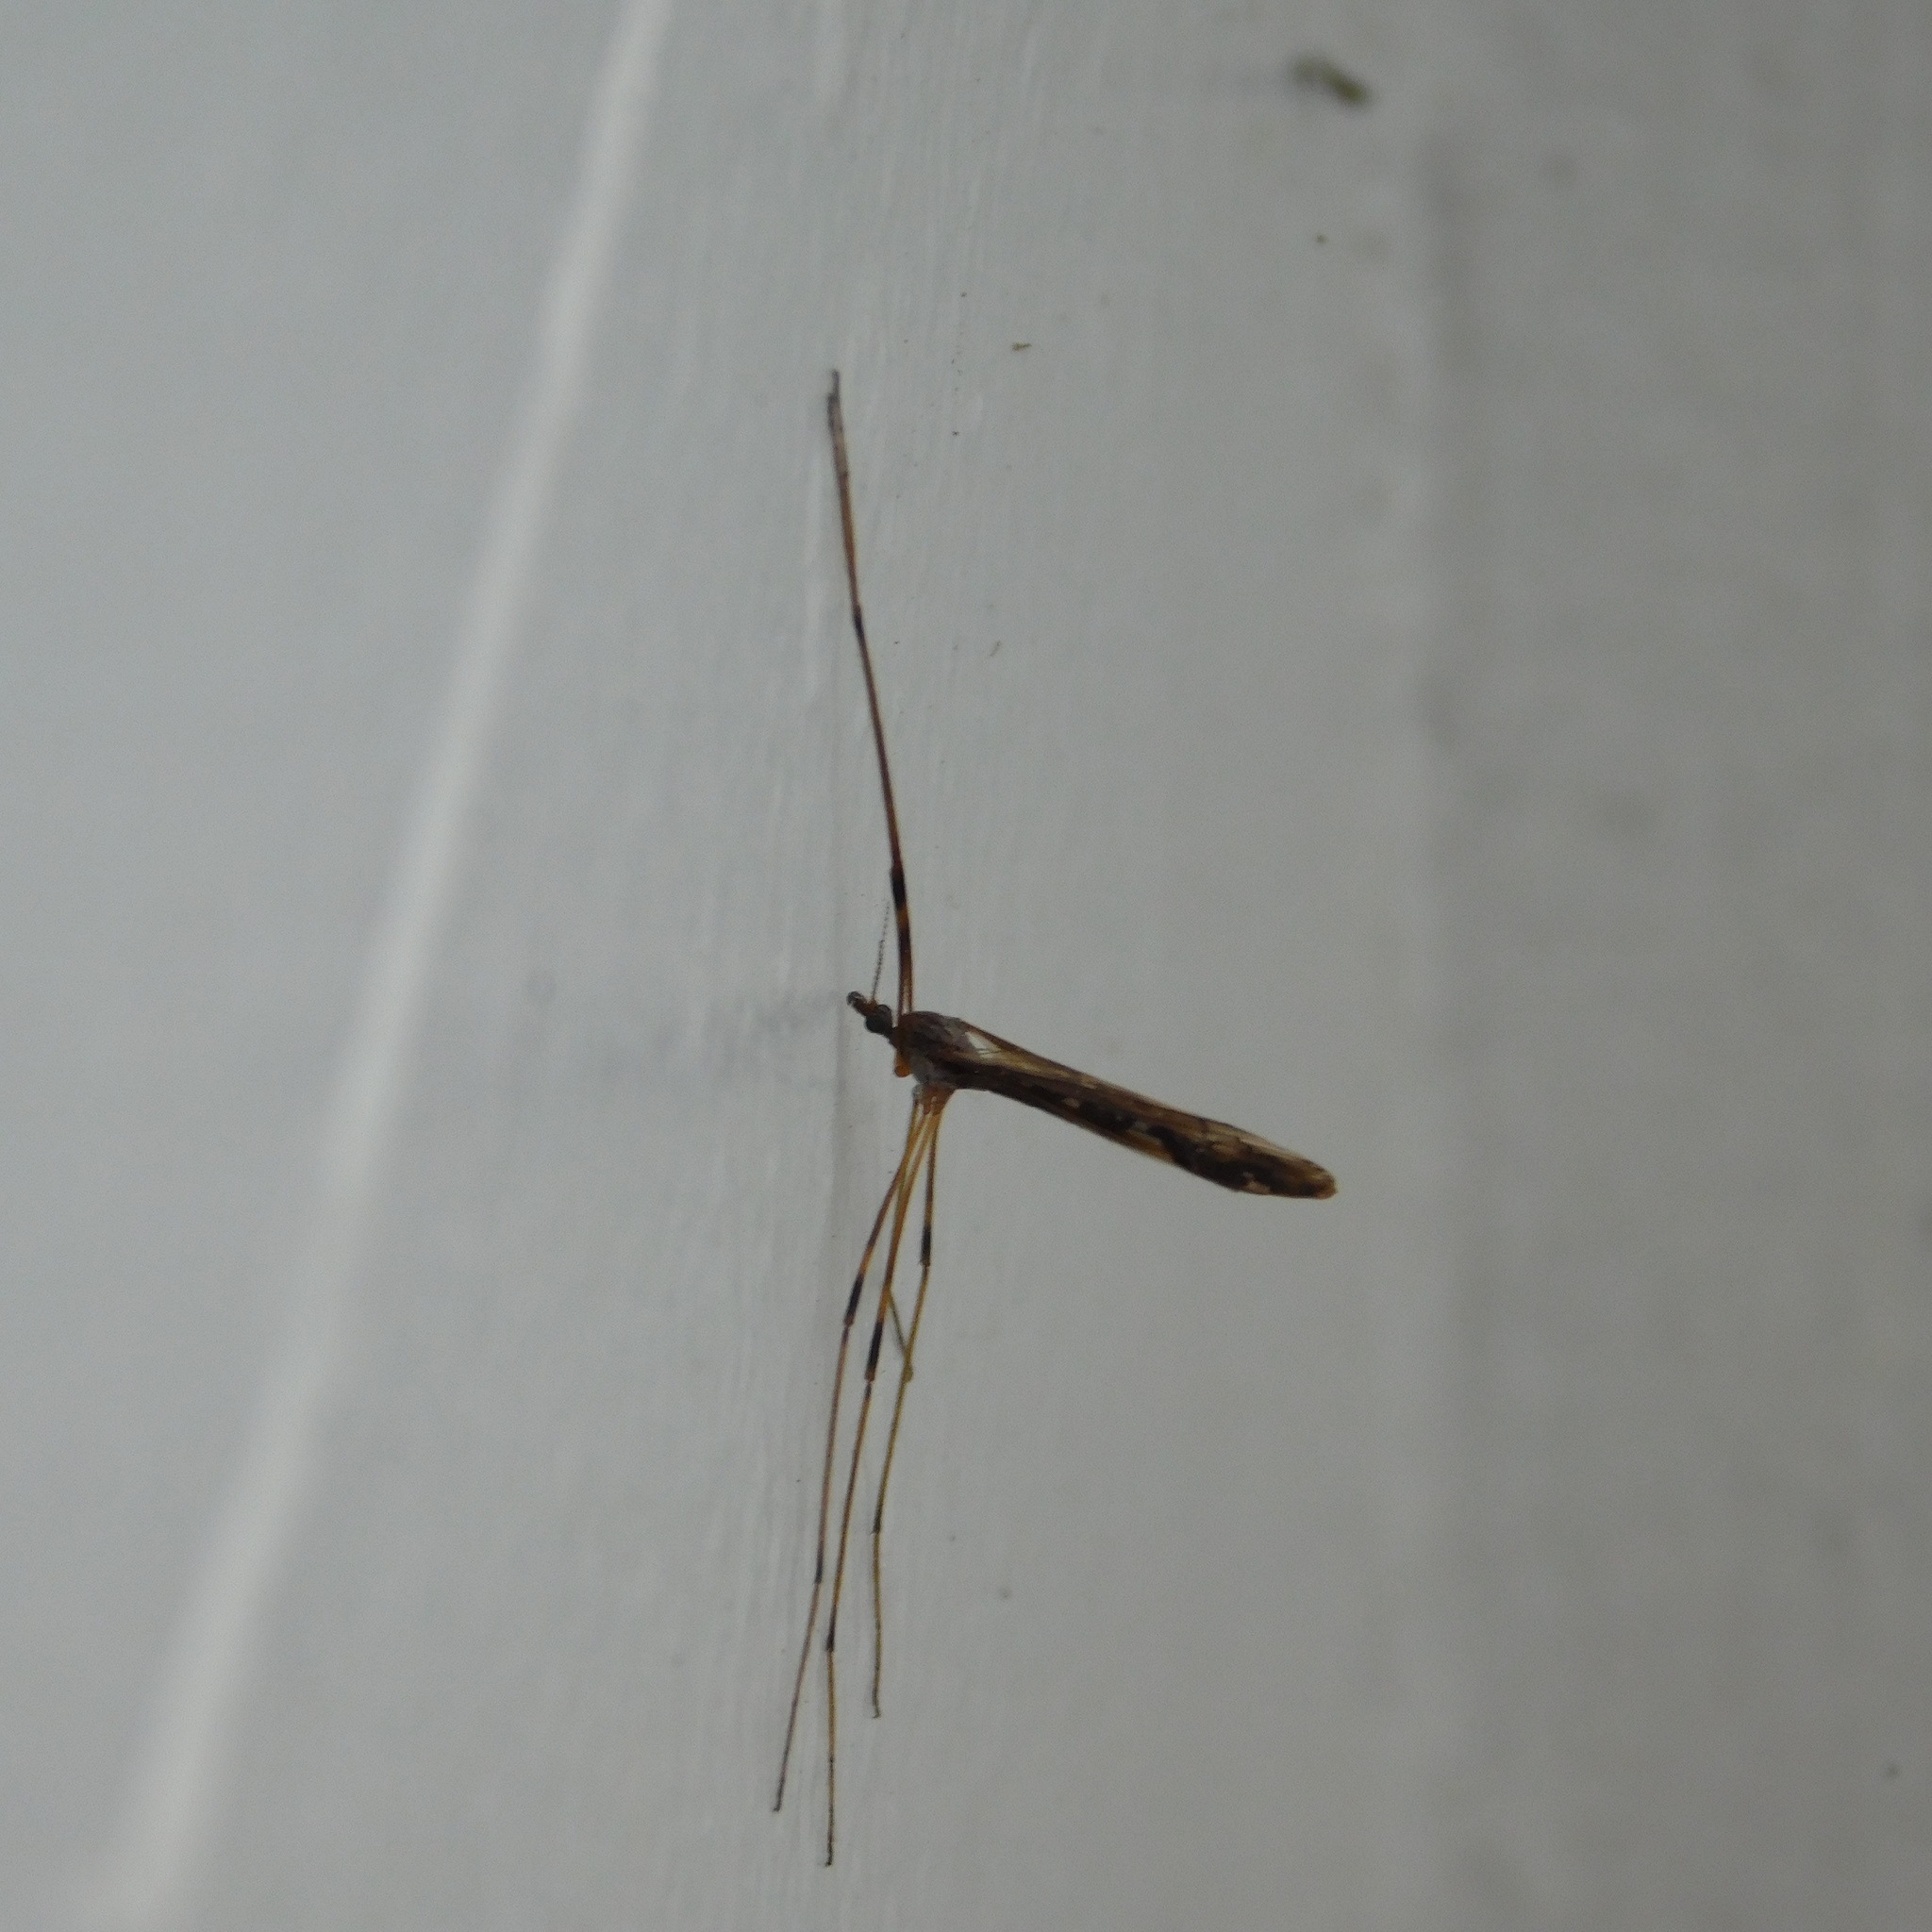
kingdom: Animalia
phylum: Arthropoda
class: Insecta
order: Diptera
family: Limoniidae
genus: Paralimnophila
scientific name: Paralimnophila skusei
